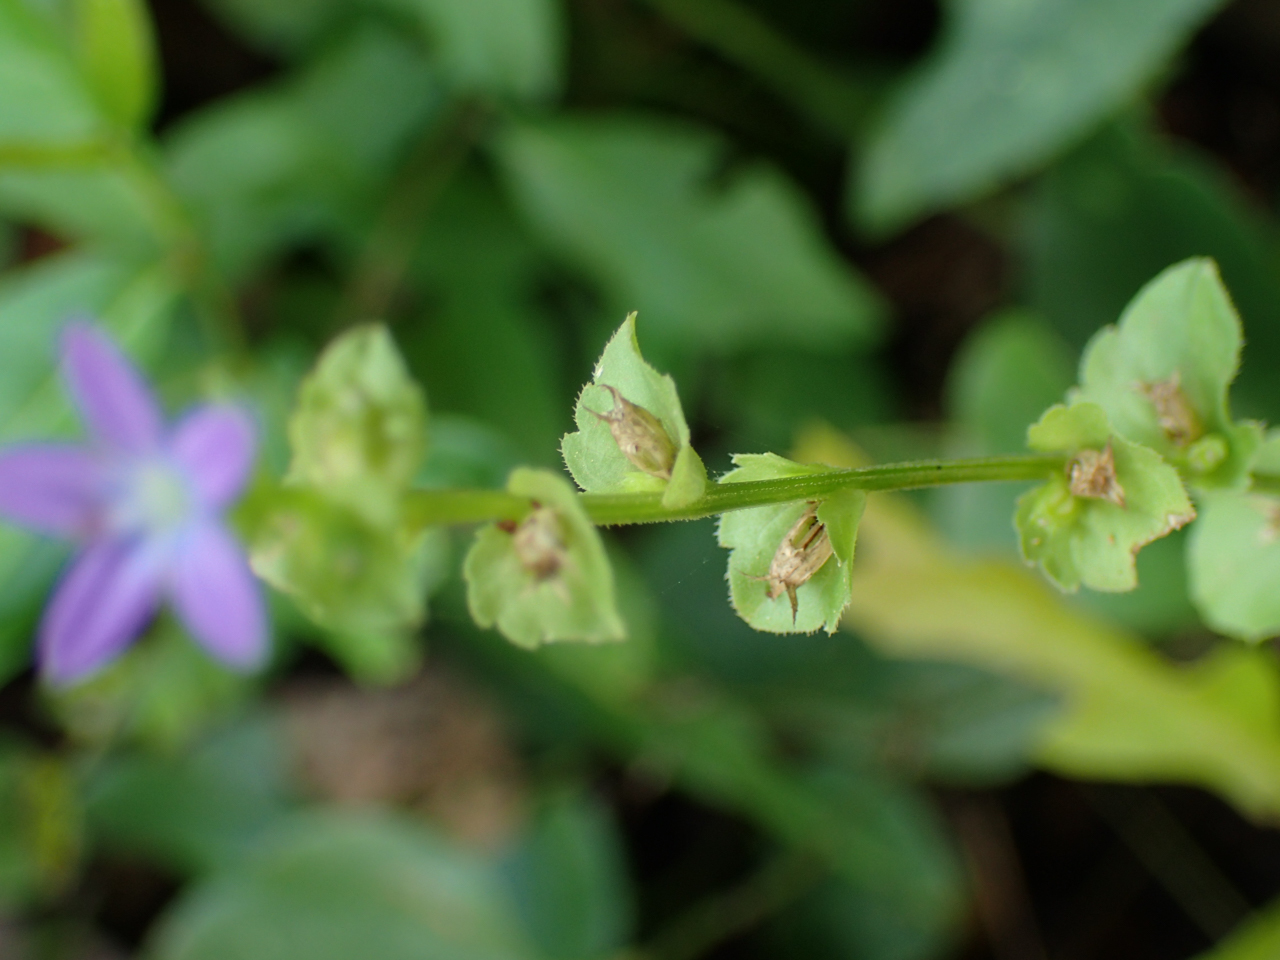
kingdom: Plantae
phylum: Tracheophyta
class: Magnoliopsida
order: Asterales
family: Campanulaceae
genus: Triodanis
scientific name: Triodanis perfoliata
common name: Clasping venus' looking-glass
